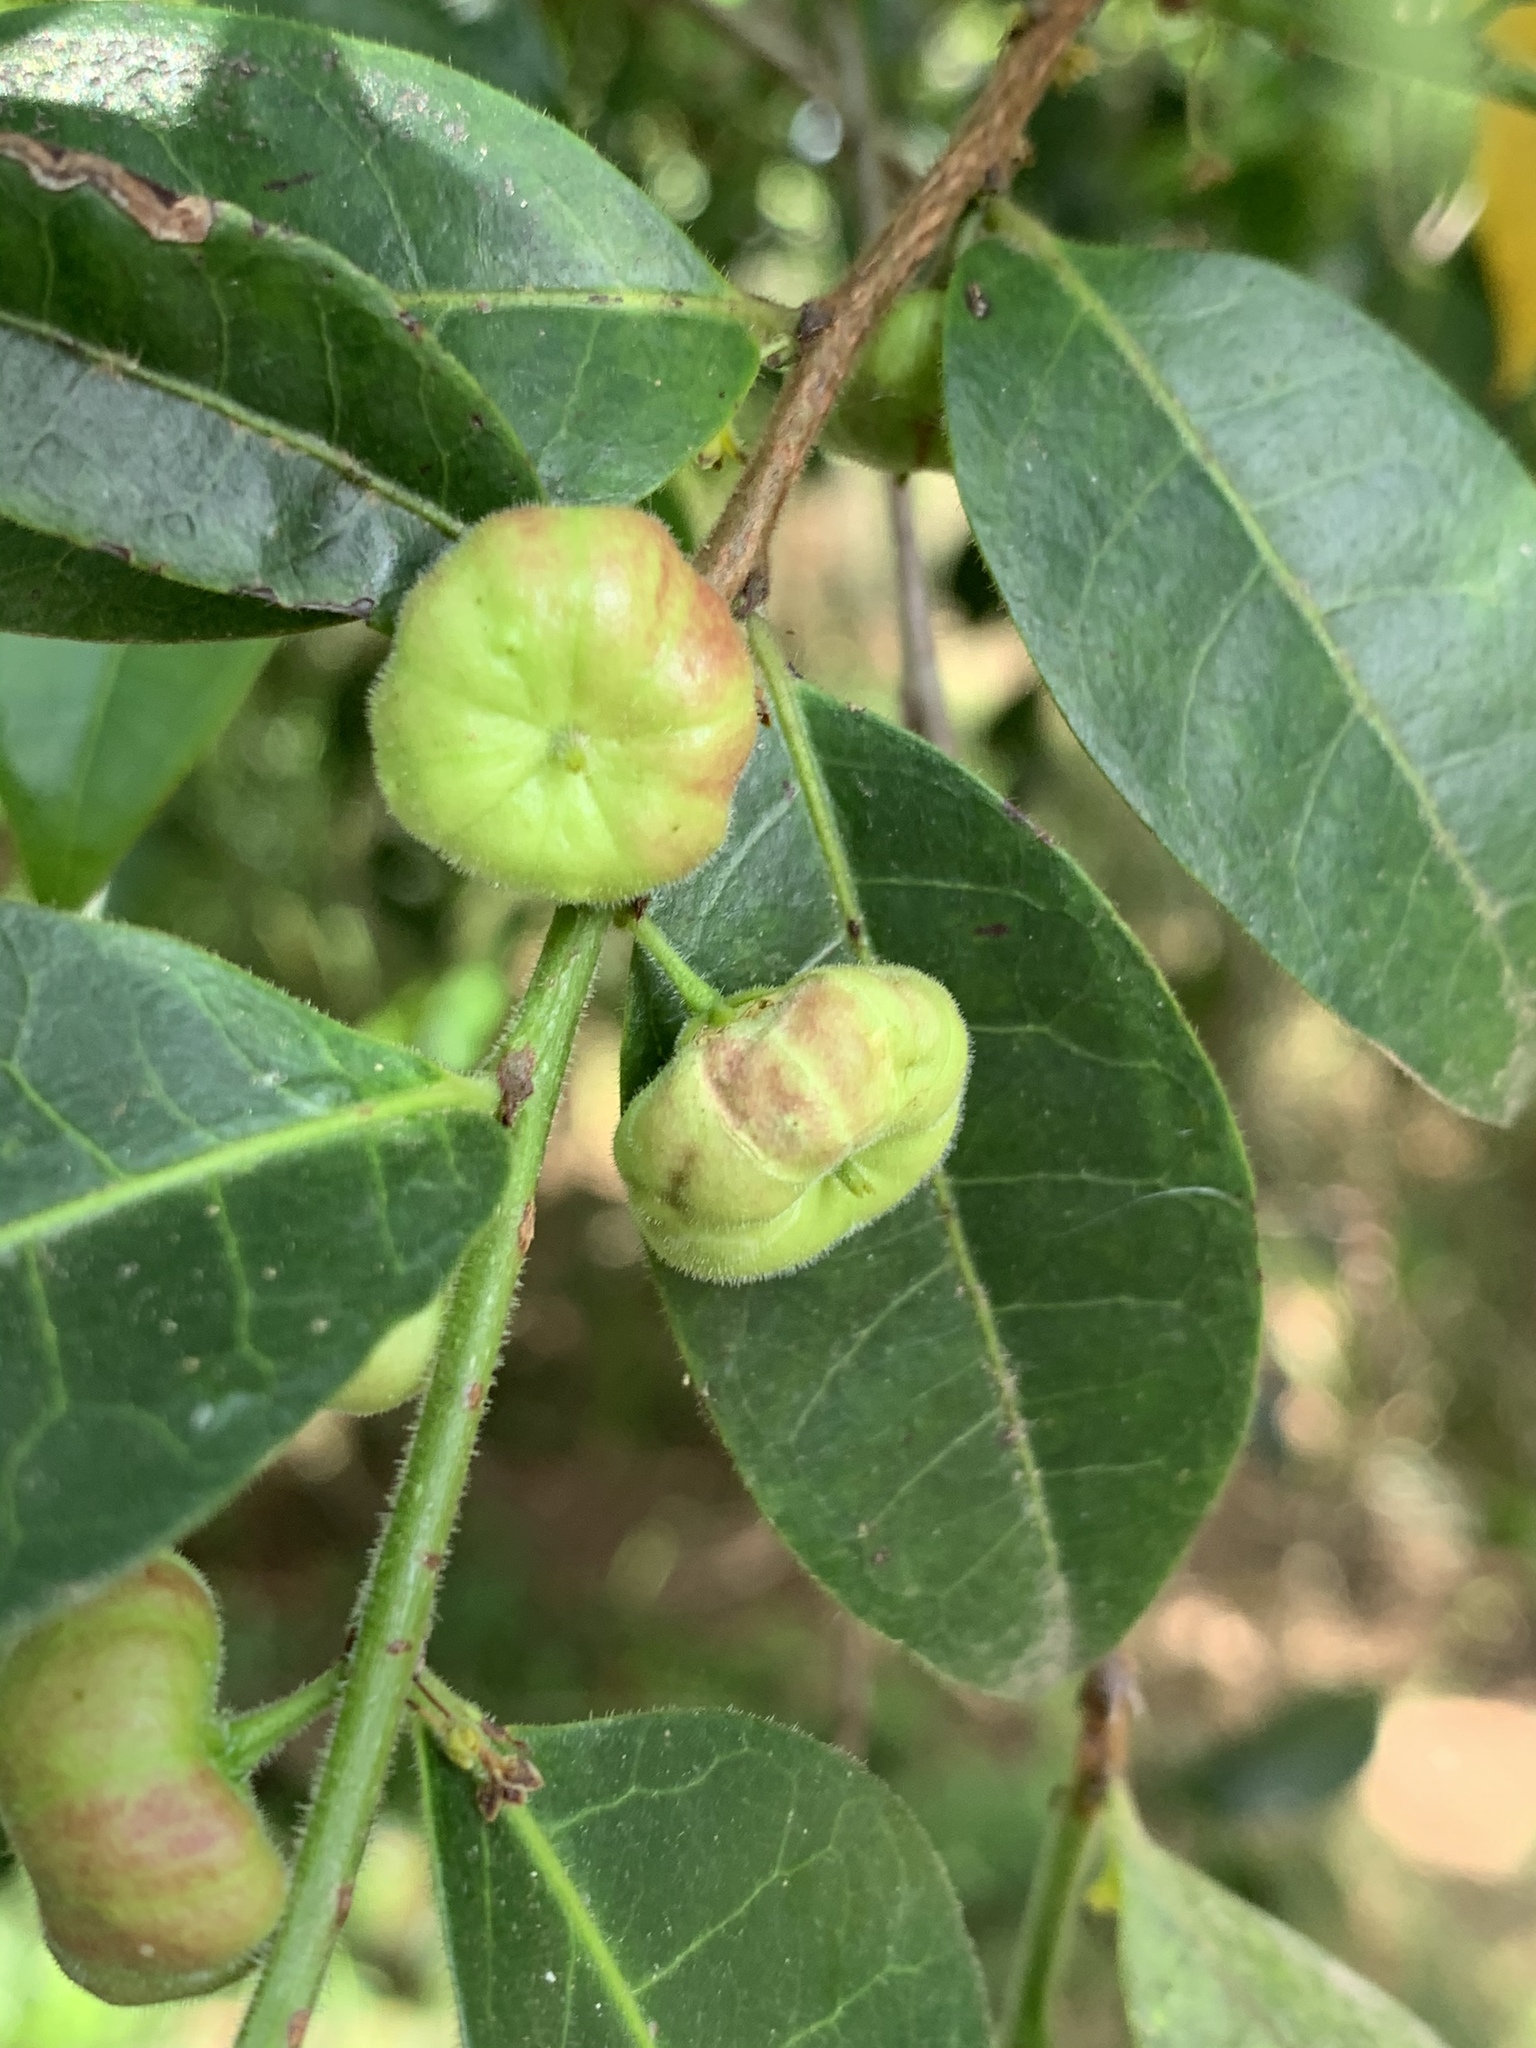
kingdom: Plantae
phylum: Tracheophyta
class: Magnoliopsida
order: Malpighiales
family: Phyllanthaceae
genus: Glochidion
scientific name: Glochidion ferdinandi
